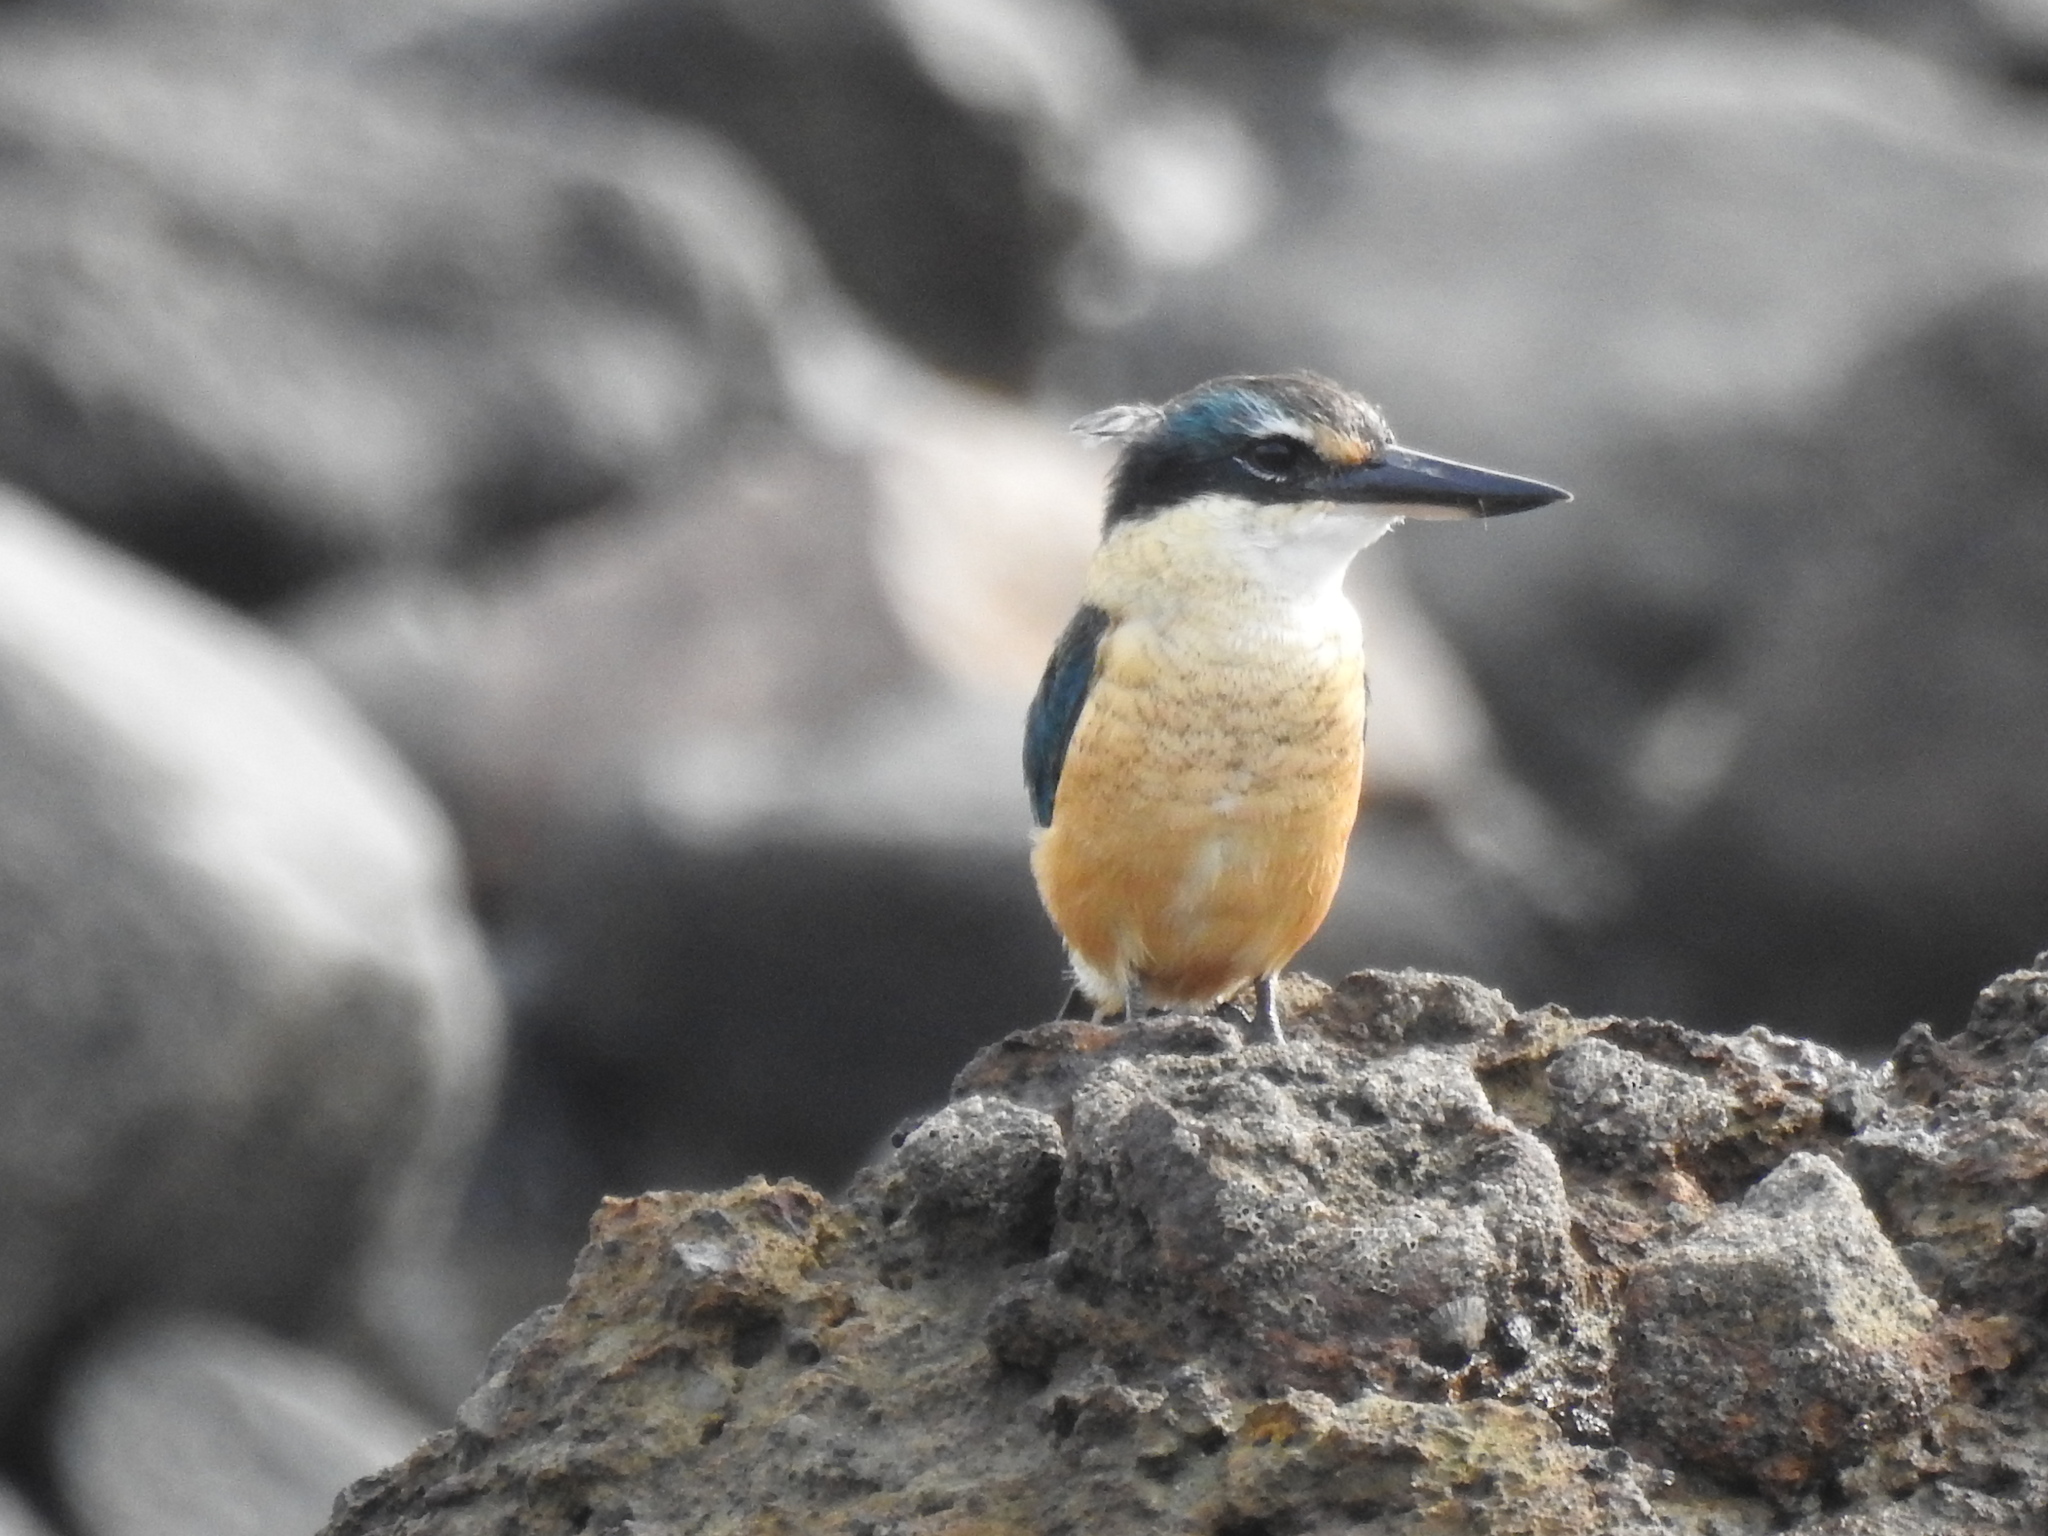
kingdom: Animalia
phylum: Chordata
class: Aves
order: Coraciiformes
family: Alcedinidae
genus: Todiramphus
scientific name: Todiramphus sanctus
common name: Sacred kingfisher
